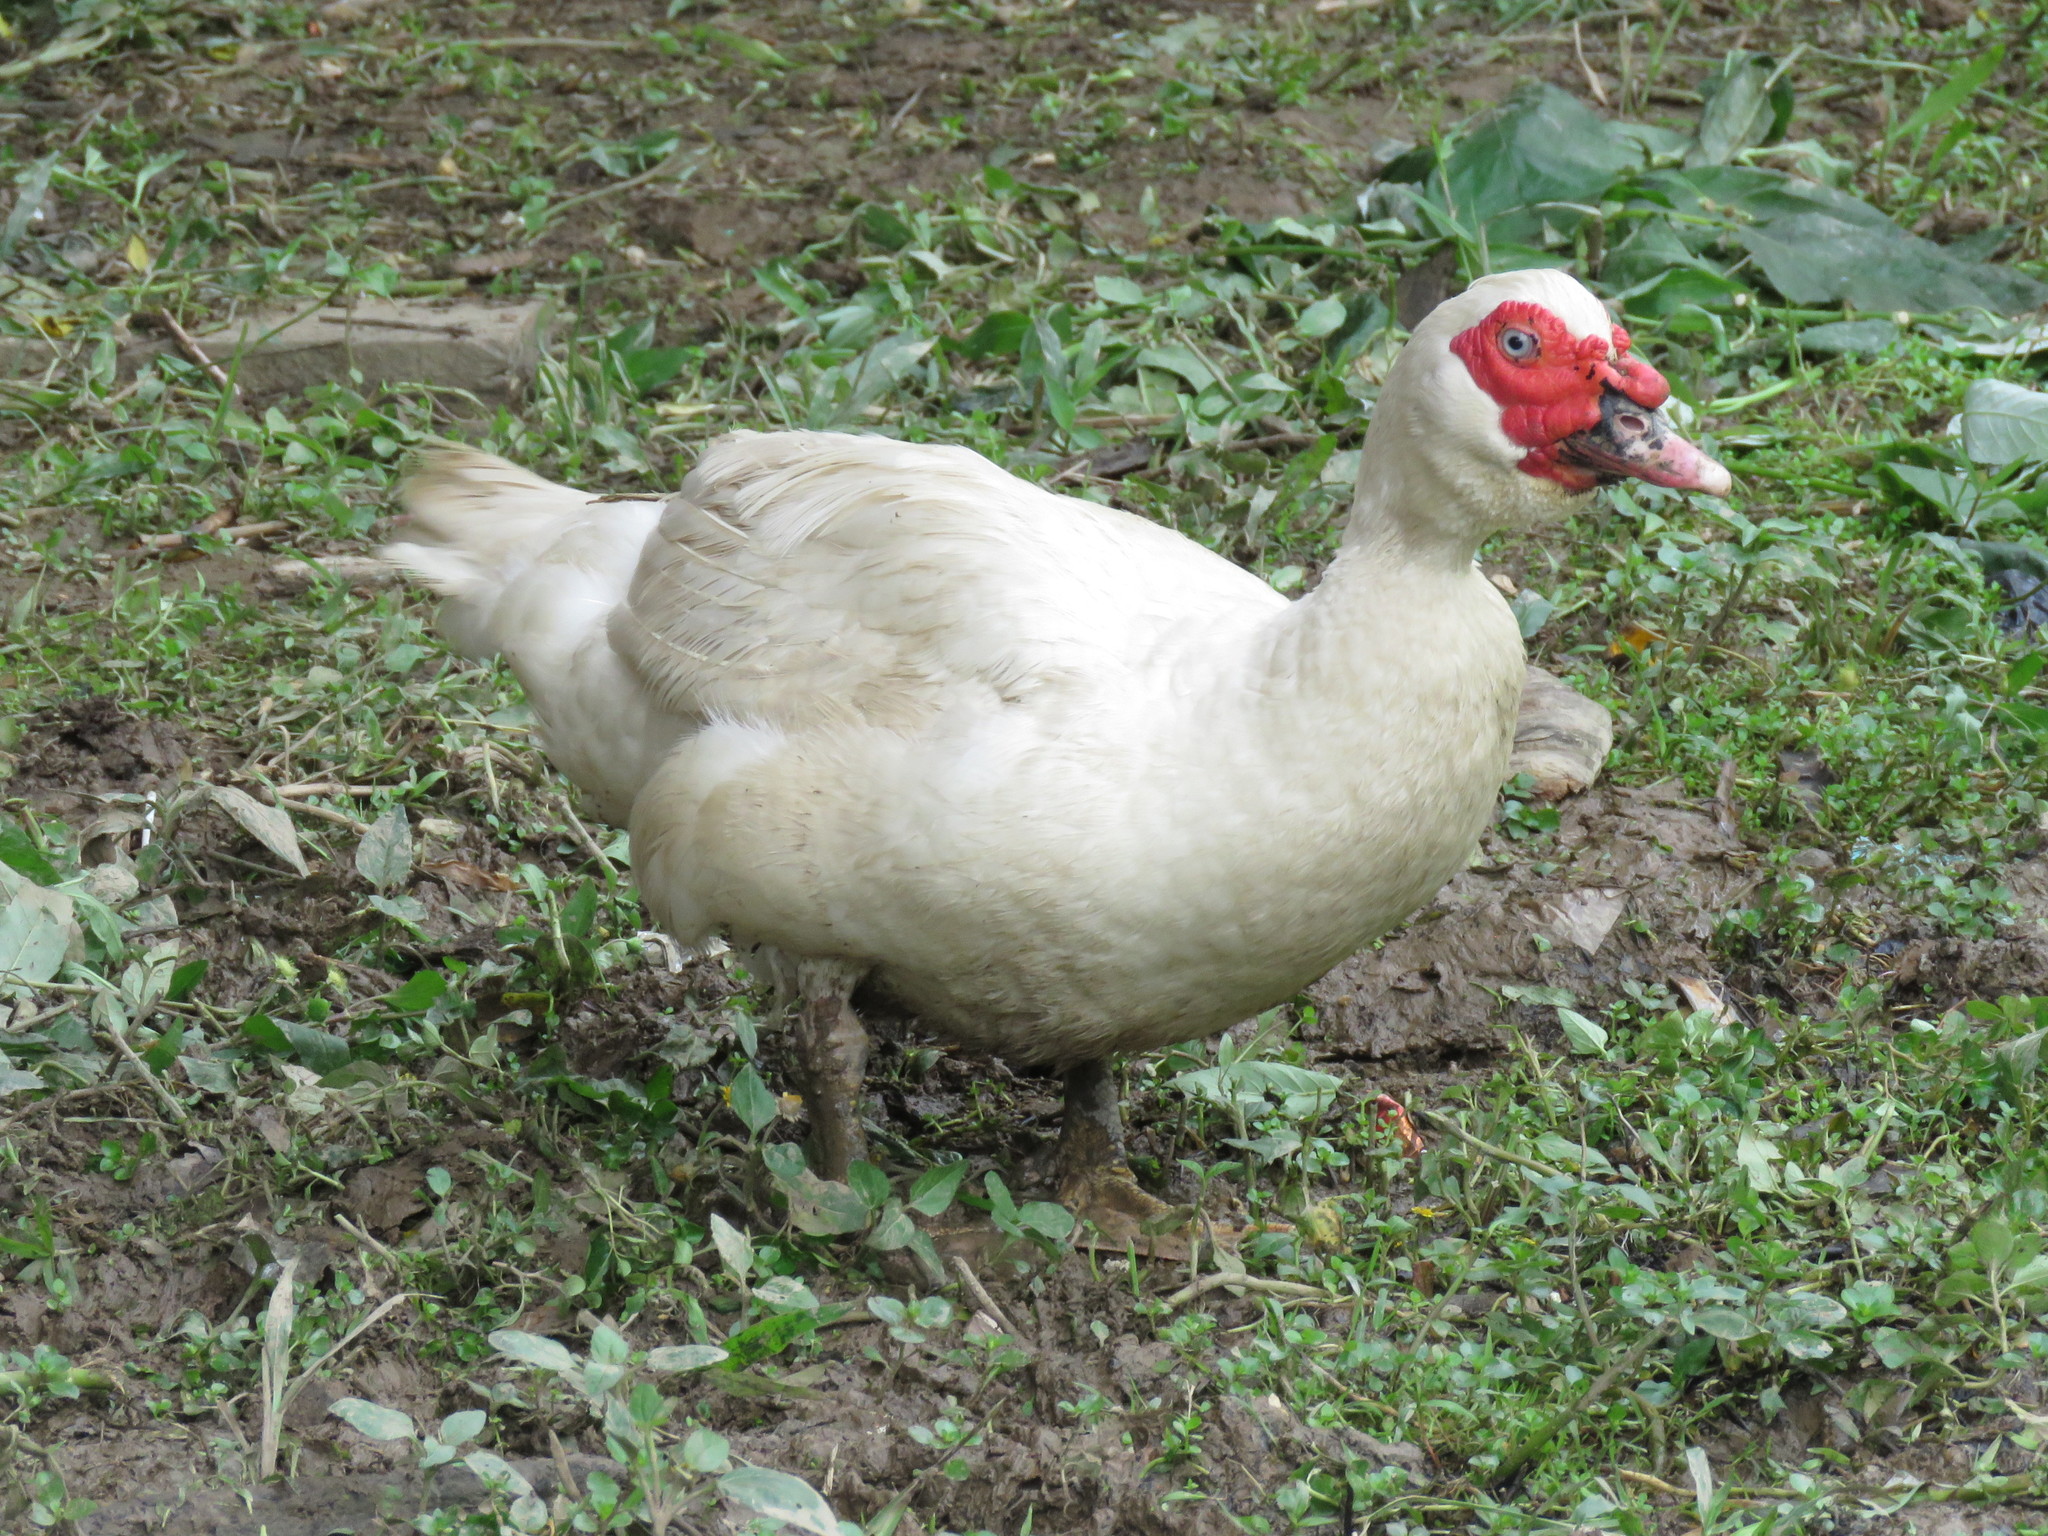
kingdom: Animalia
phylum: Chordata
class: Aves
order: Anseriformes
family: Anatidae
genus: Cairina
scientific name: Cairina moschata
